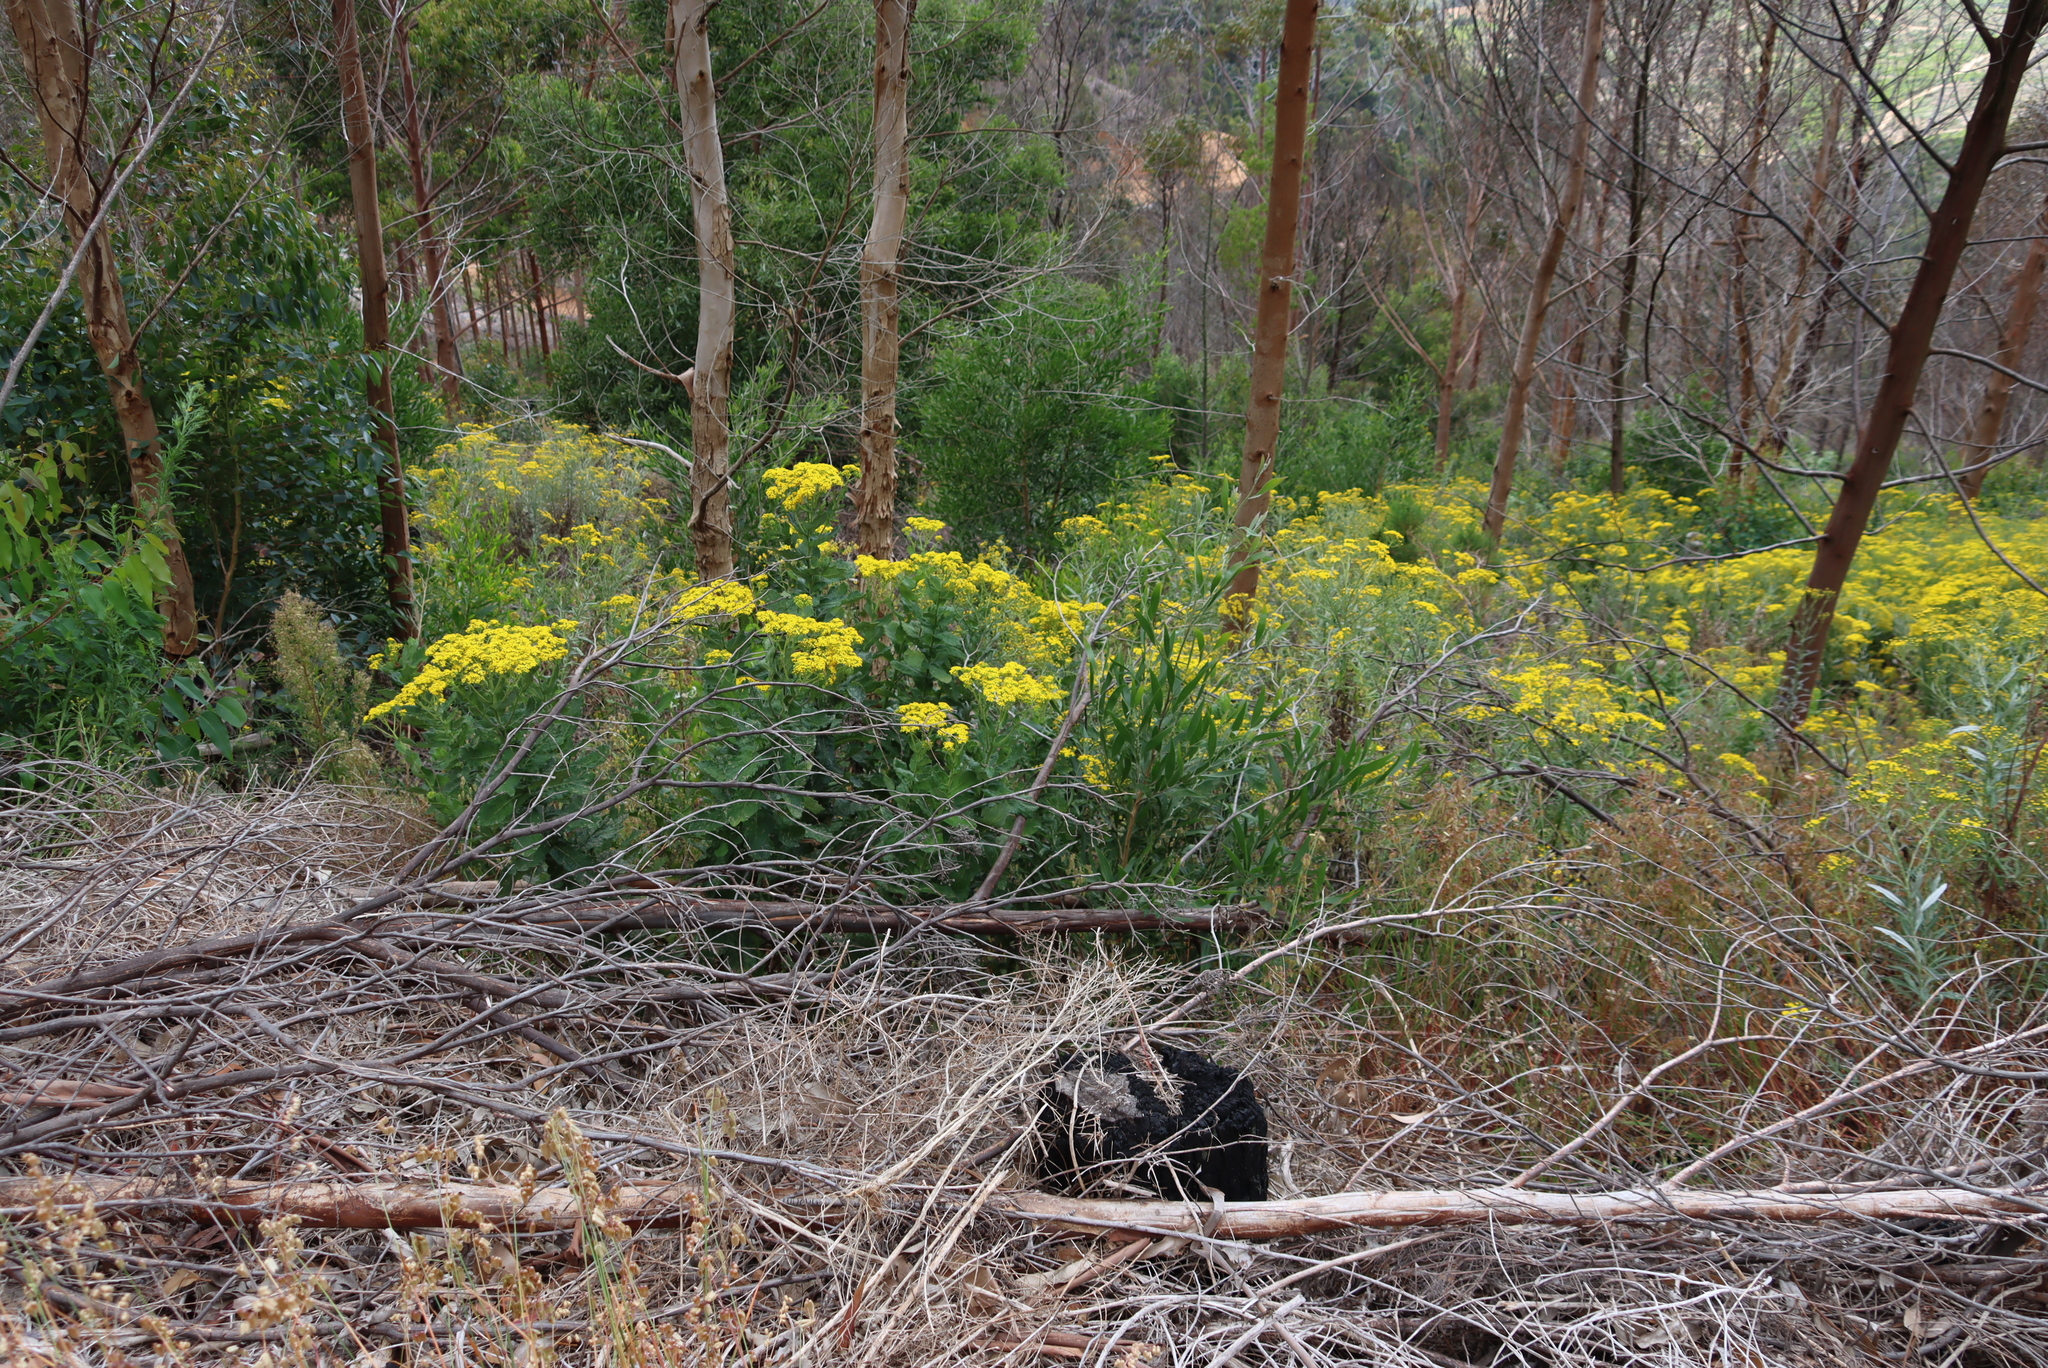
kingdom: Plantae
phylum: Tracheophyta
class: Magnoliopsida
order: Asterales
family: Asteraceae
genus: Senecio
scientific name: Senecio rigidus
